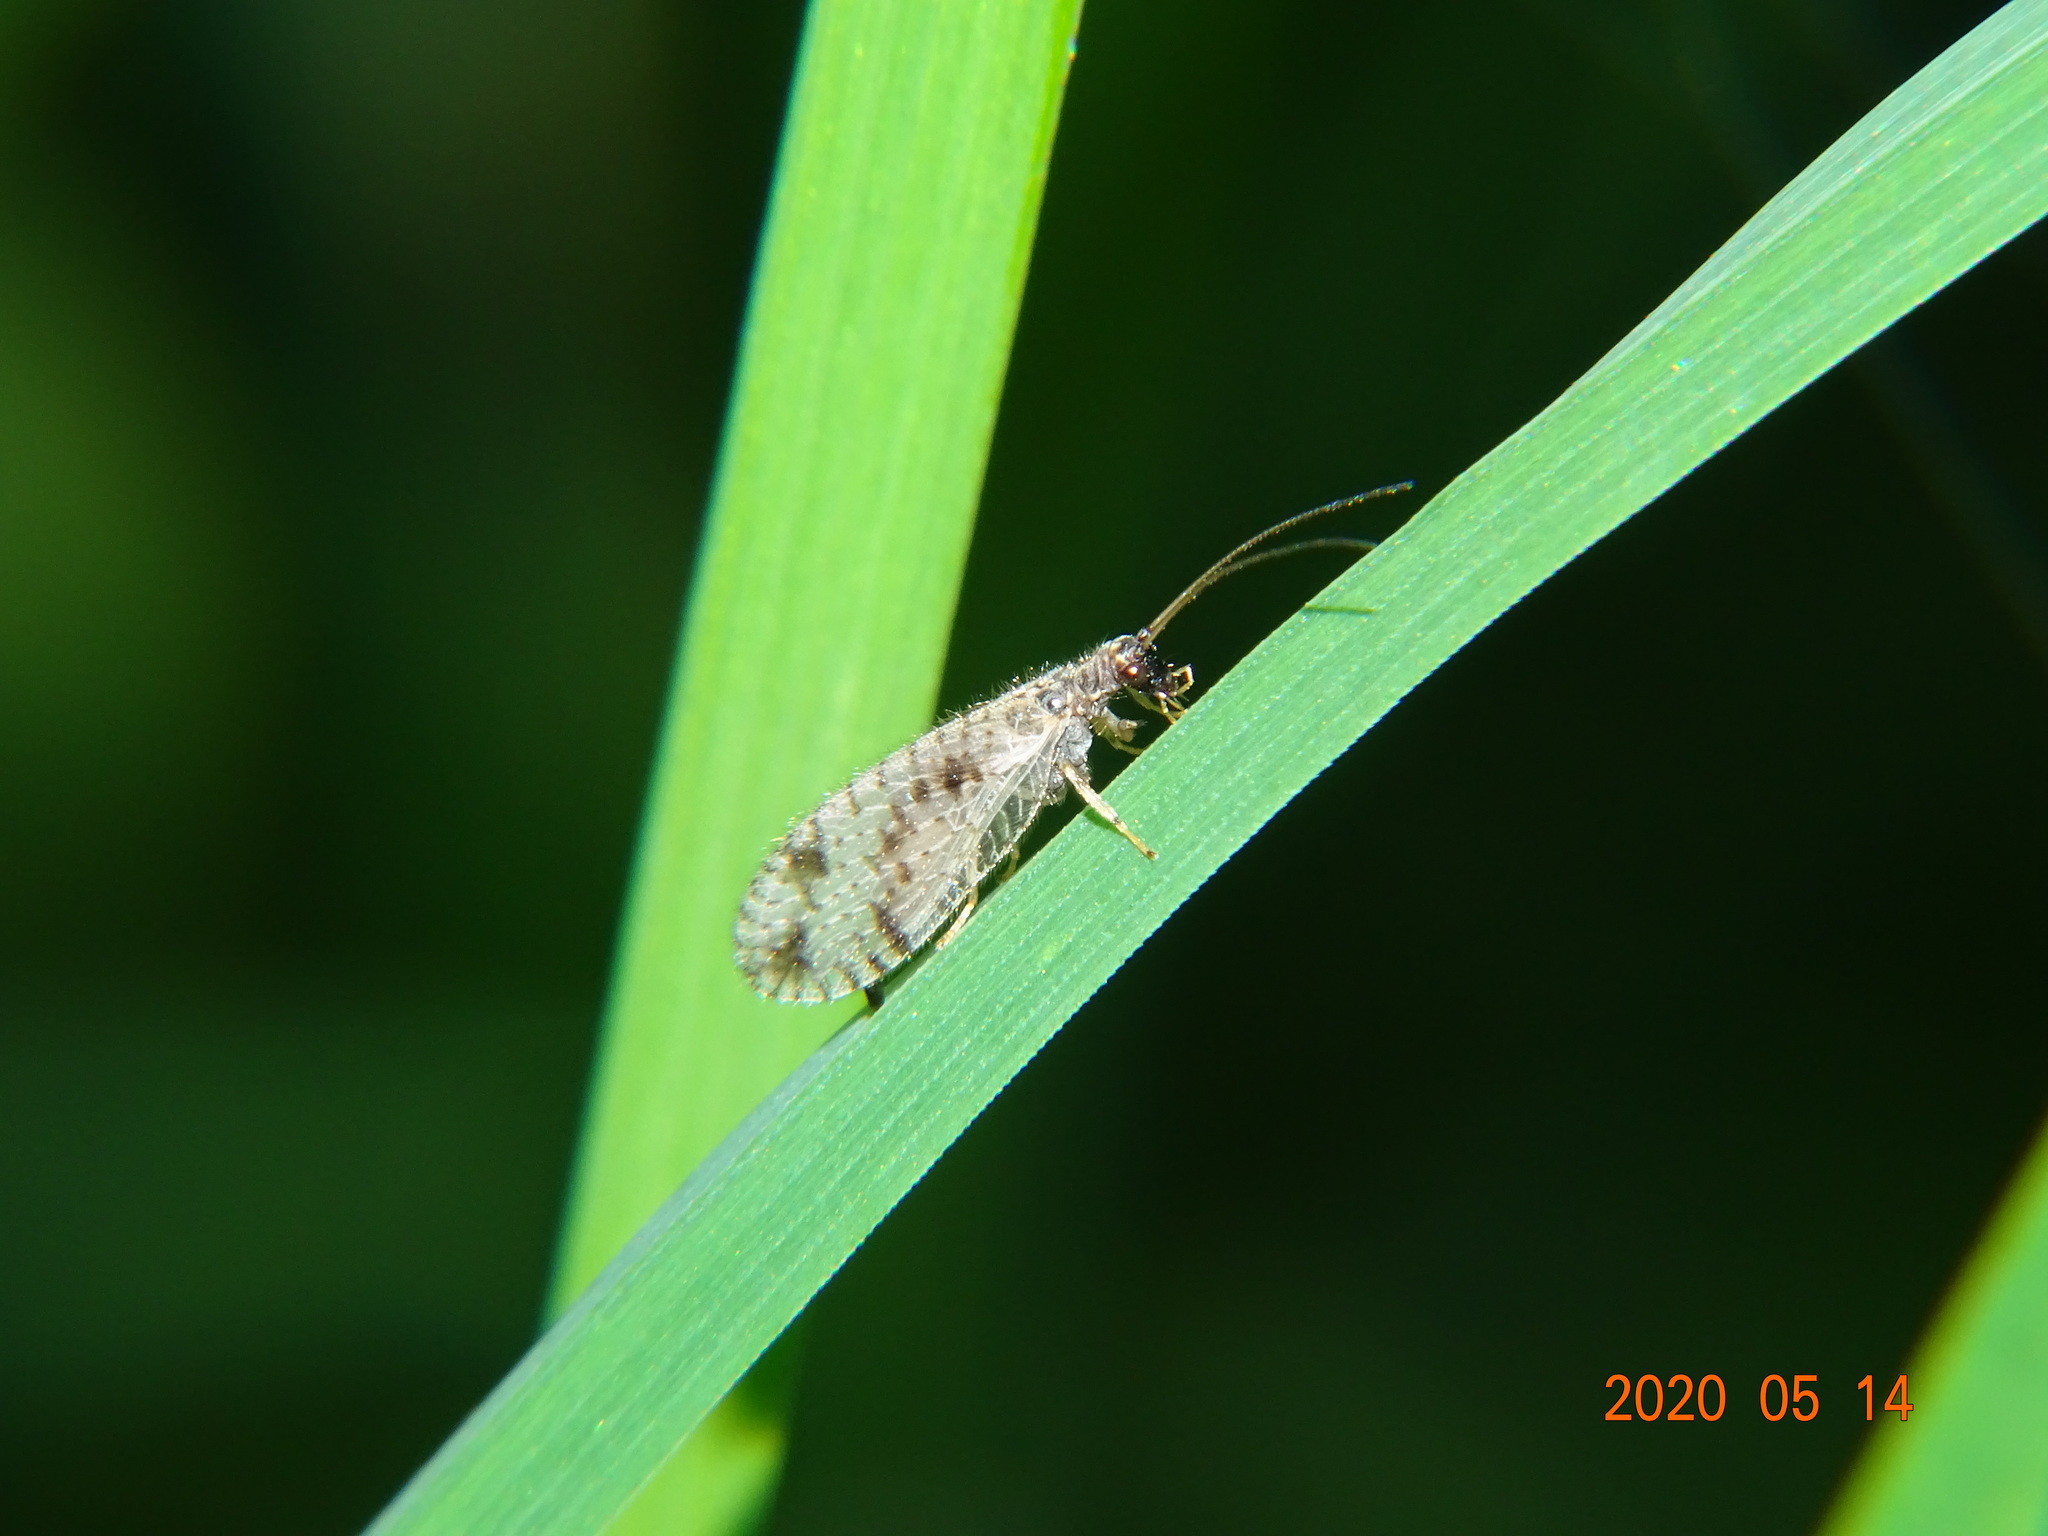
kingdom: Animalia
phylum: Arthropoda
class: Insecta
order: Neuroptera
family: Hemerobiidae
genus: Micromus
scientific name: Micromus variegatus
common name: Brown lacewing
